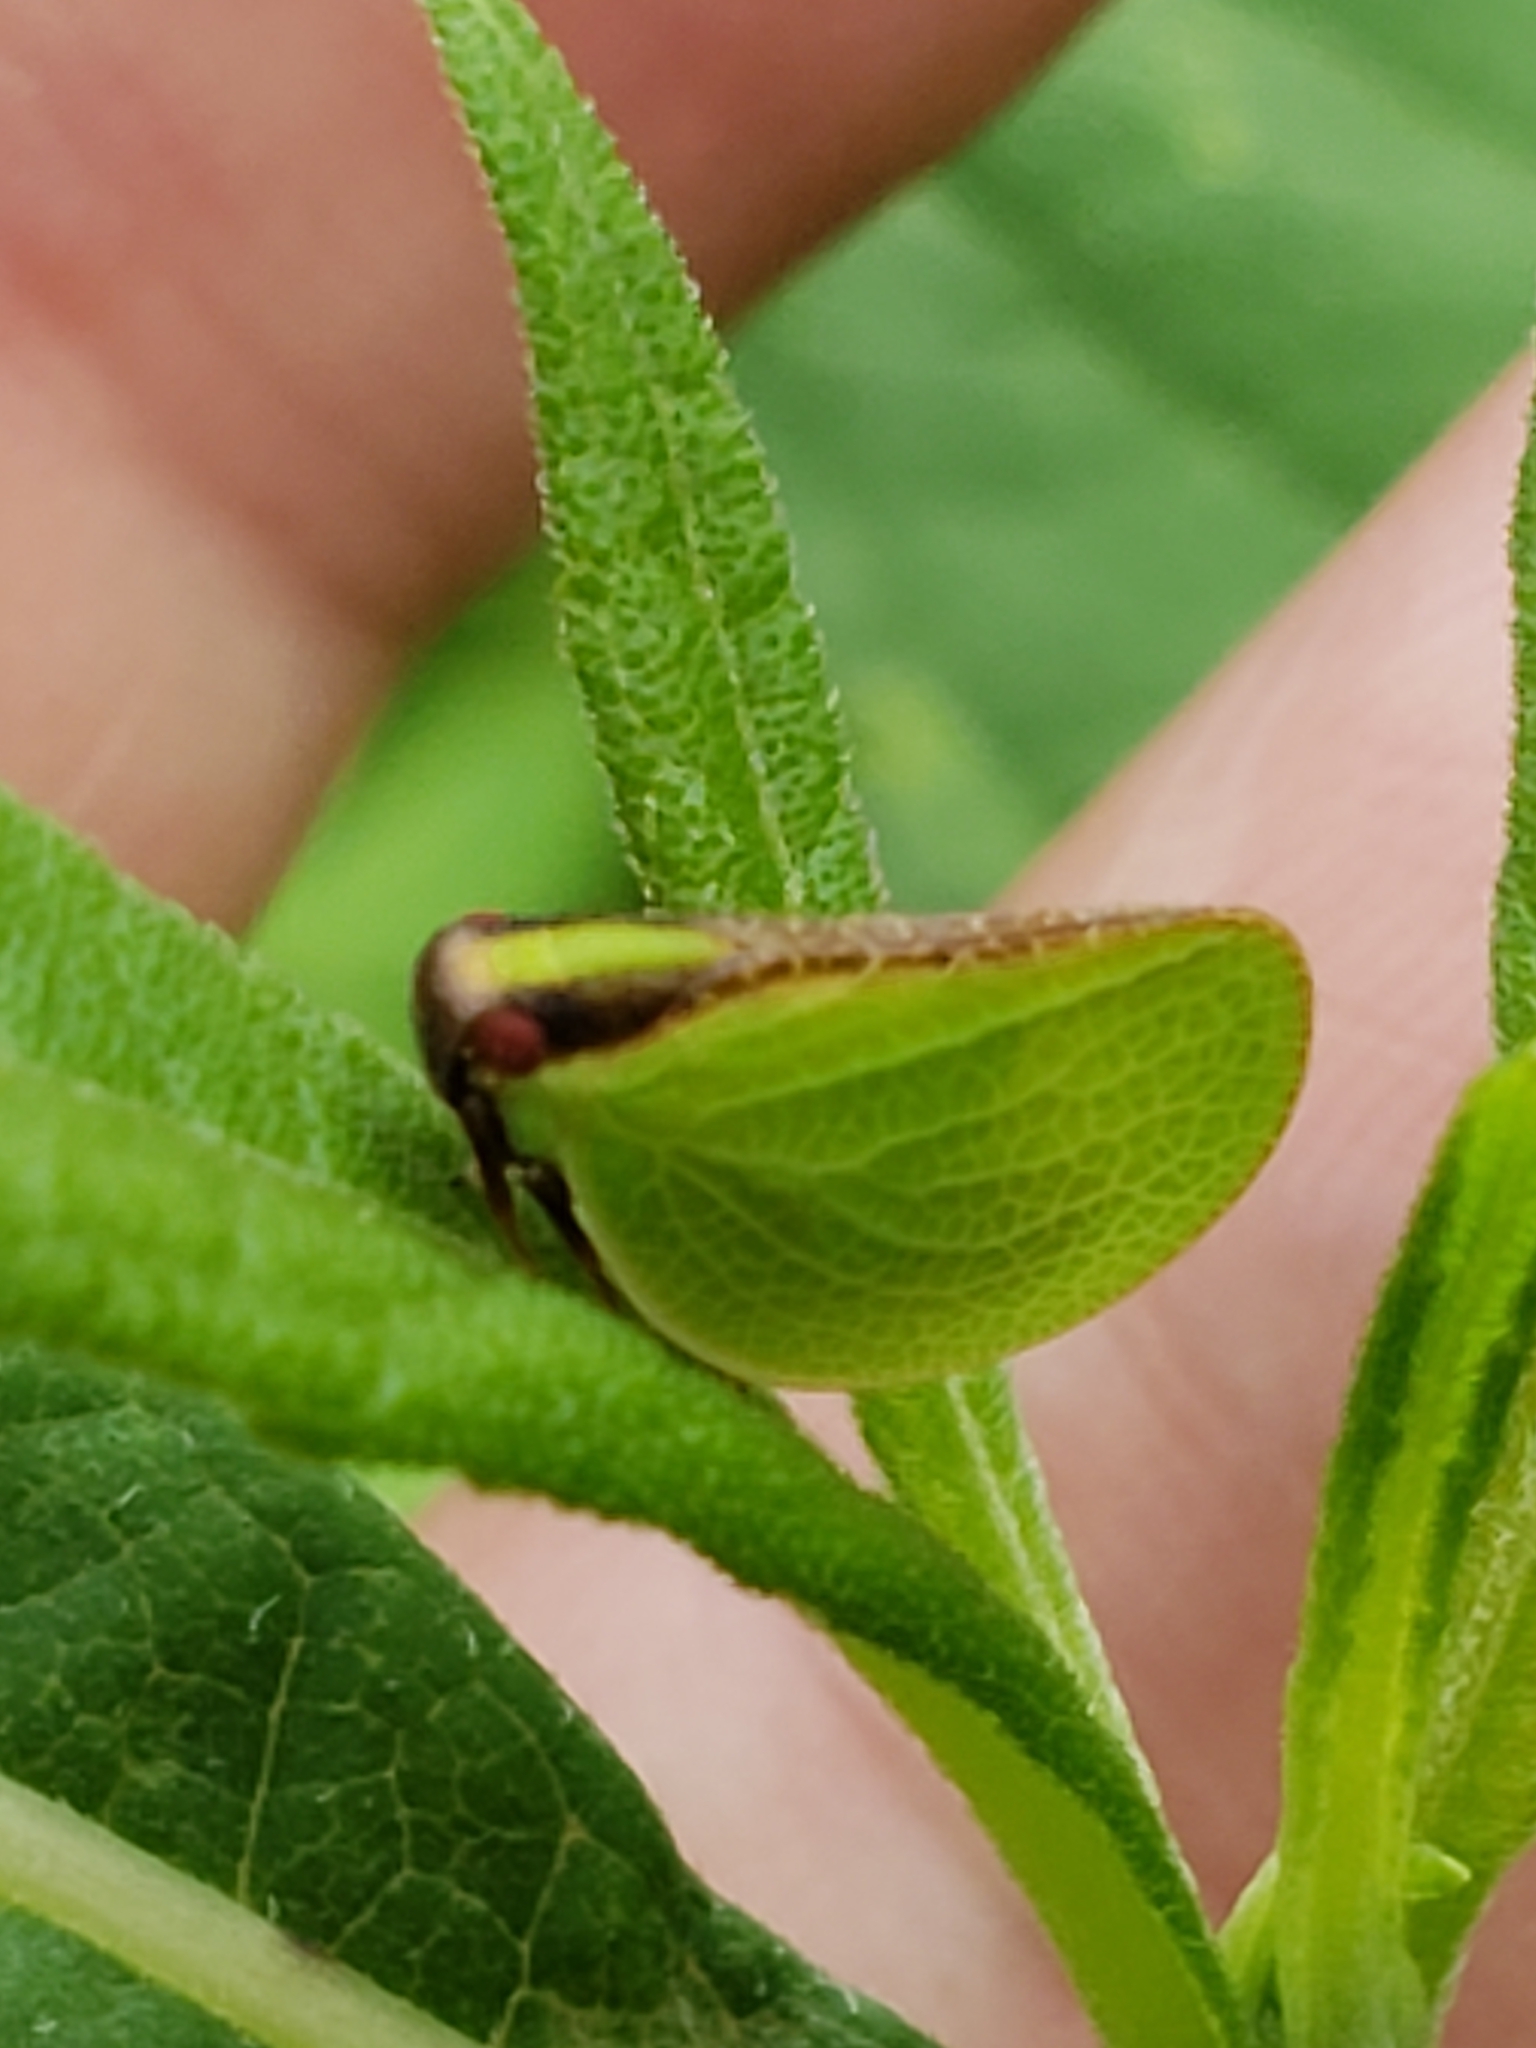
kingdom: Animalia
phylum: Arthropoda
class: Insecta
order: Hemiptera
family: Acanaloniidae
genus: Acanalonia
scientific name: Acanalonia bivittata
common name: Two-striped planthopper
